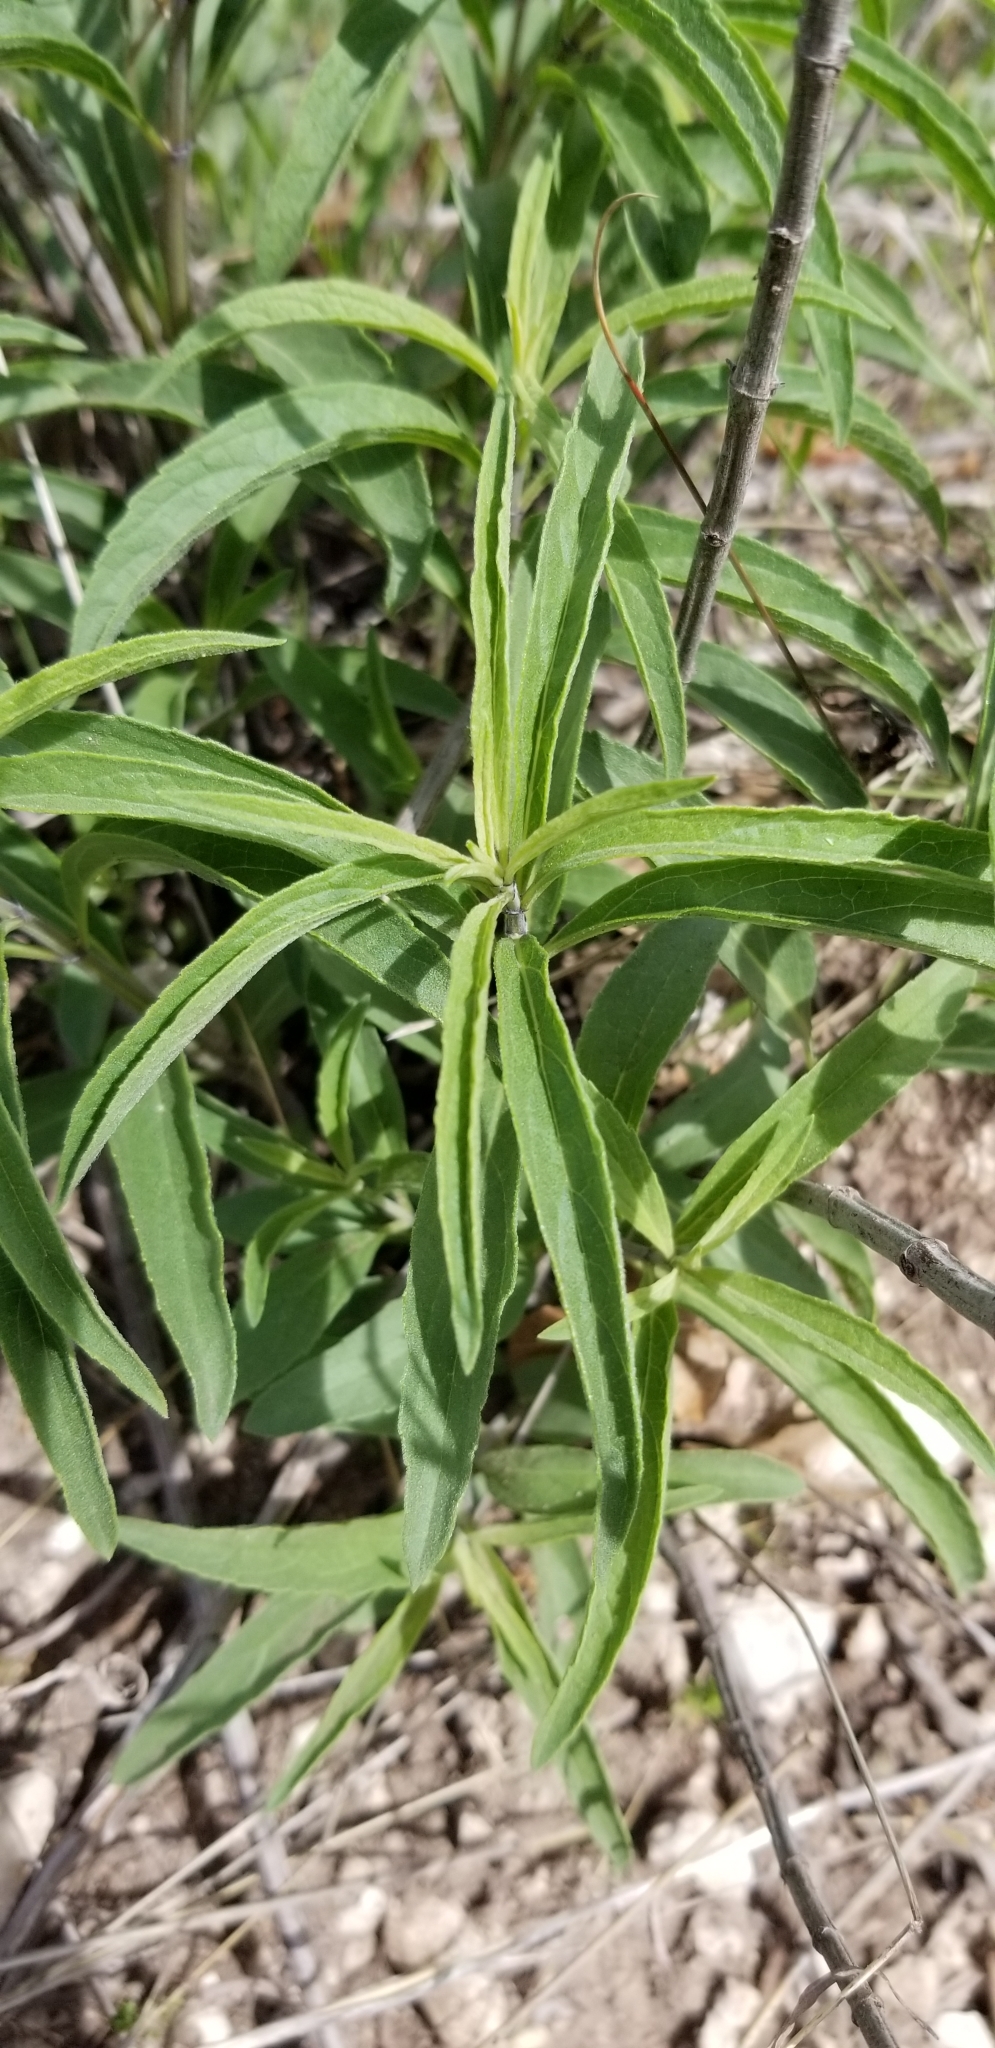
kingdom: Plantae
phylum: Tracheophyta
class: Magnoliopsida
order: Asterales
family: Asteraceae
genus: Helianthus
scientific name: Helianthus maximiliani
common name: Maximilian's sunflower
